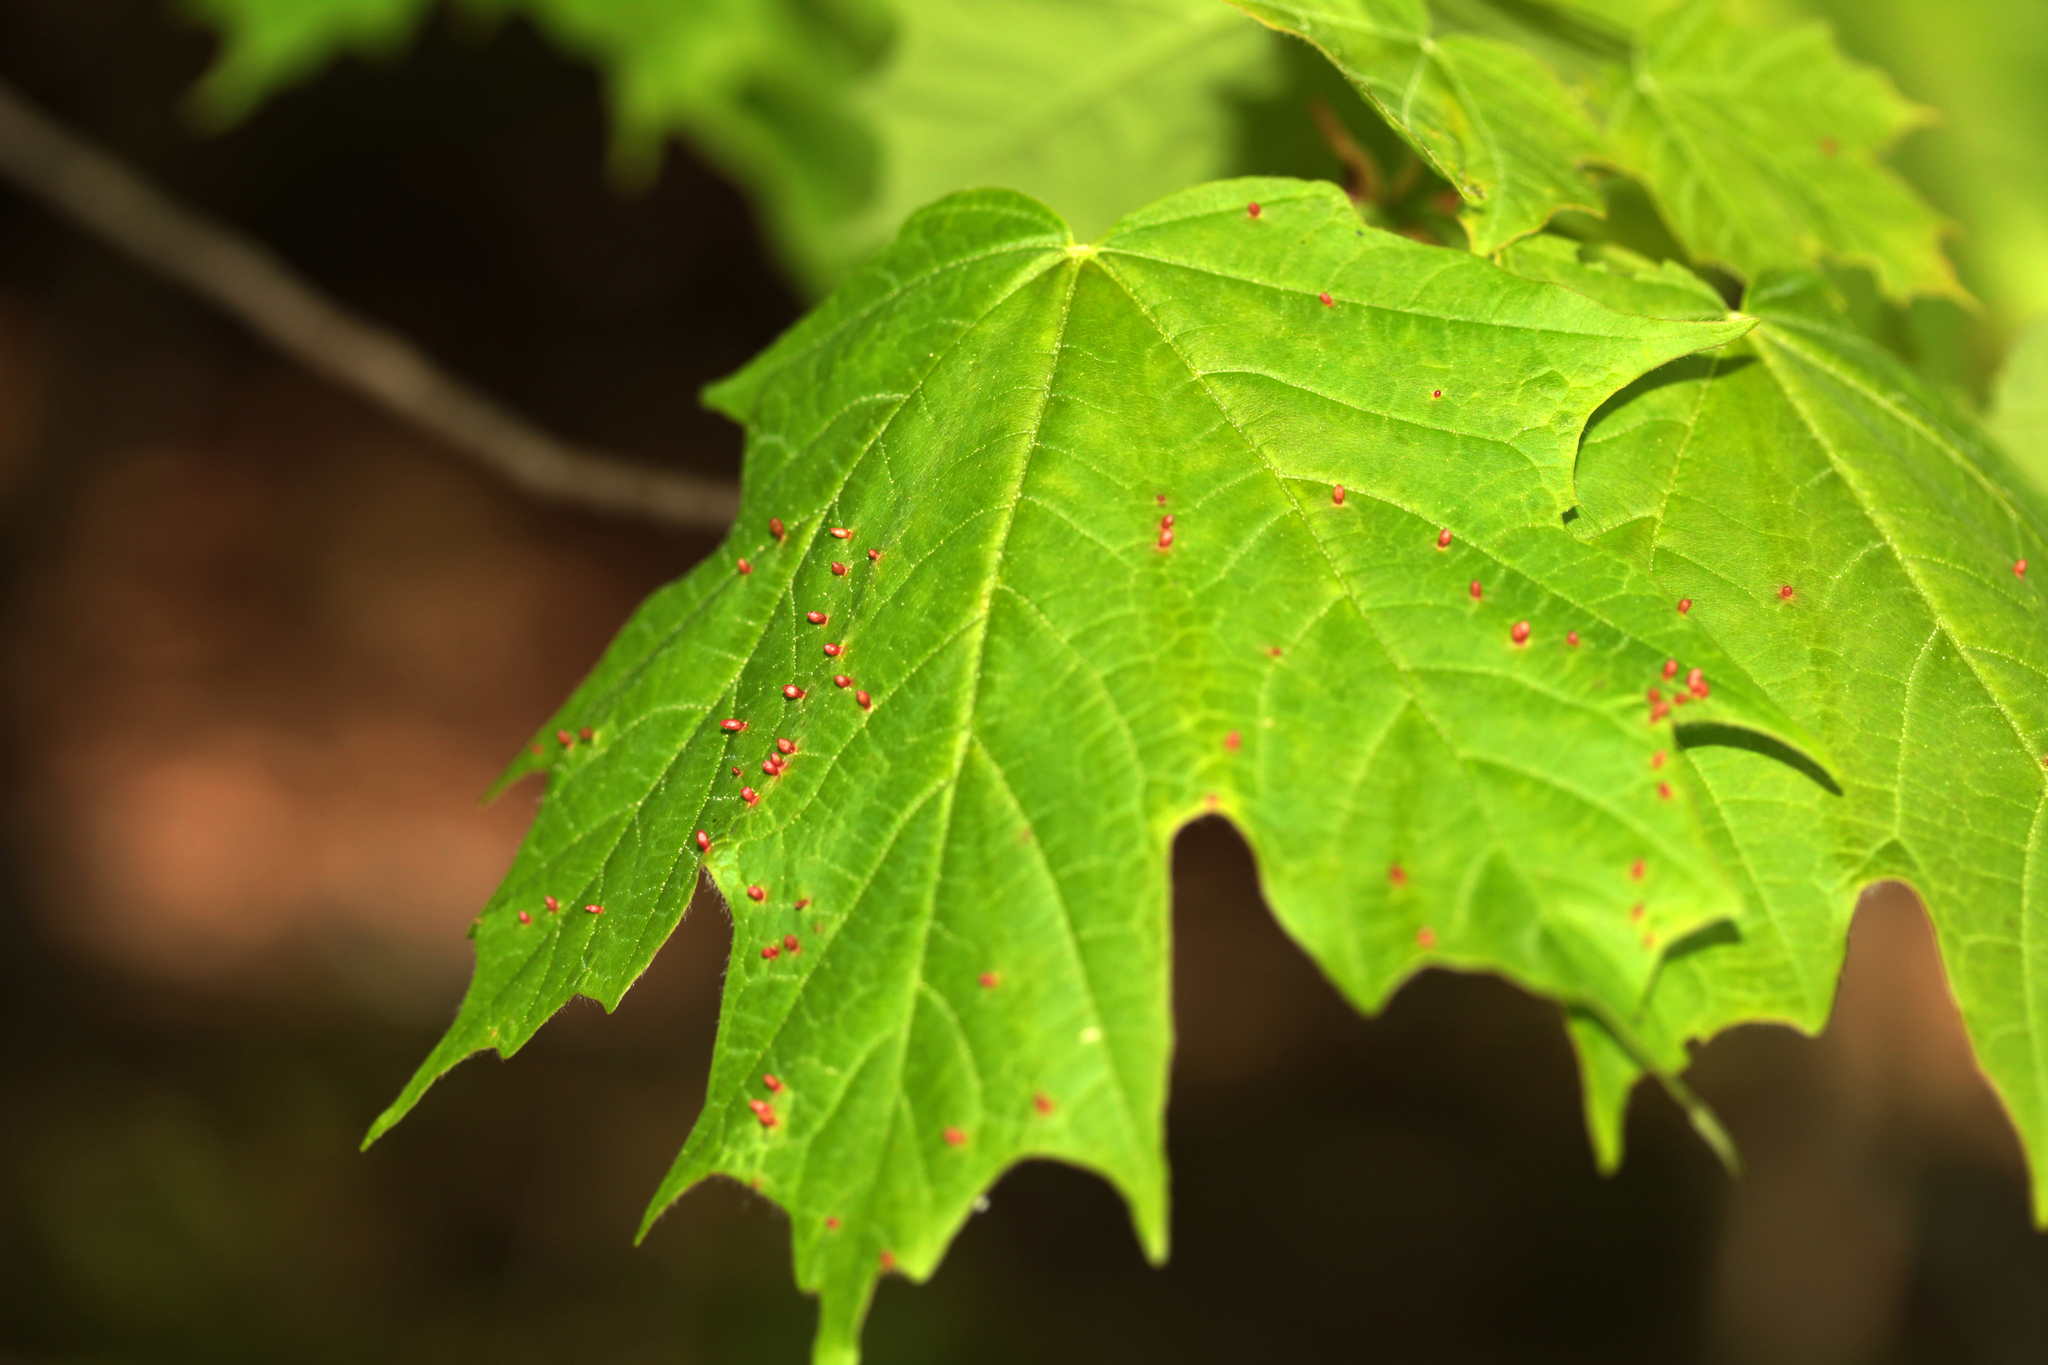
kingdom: Animalia
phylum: Arthropoda
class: Arachnida
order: Trombidiformes
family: Eriophyidae
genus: Vasates
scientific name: Vasates aceriscrumena
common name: Maple spindle gall mite
